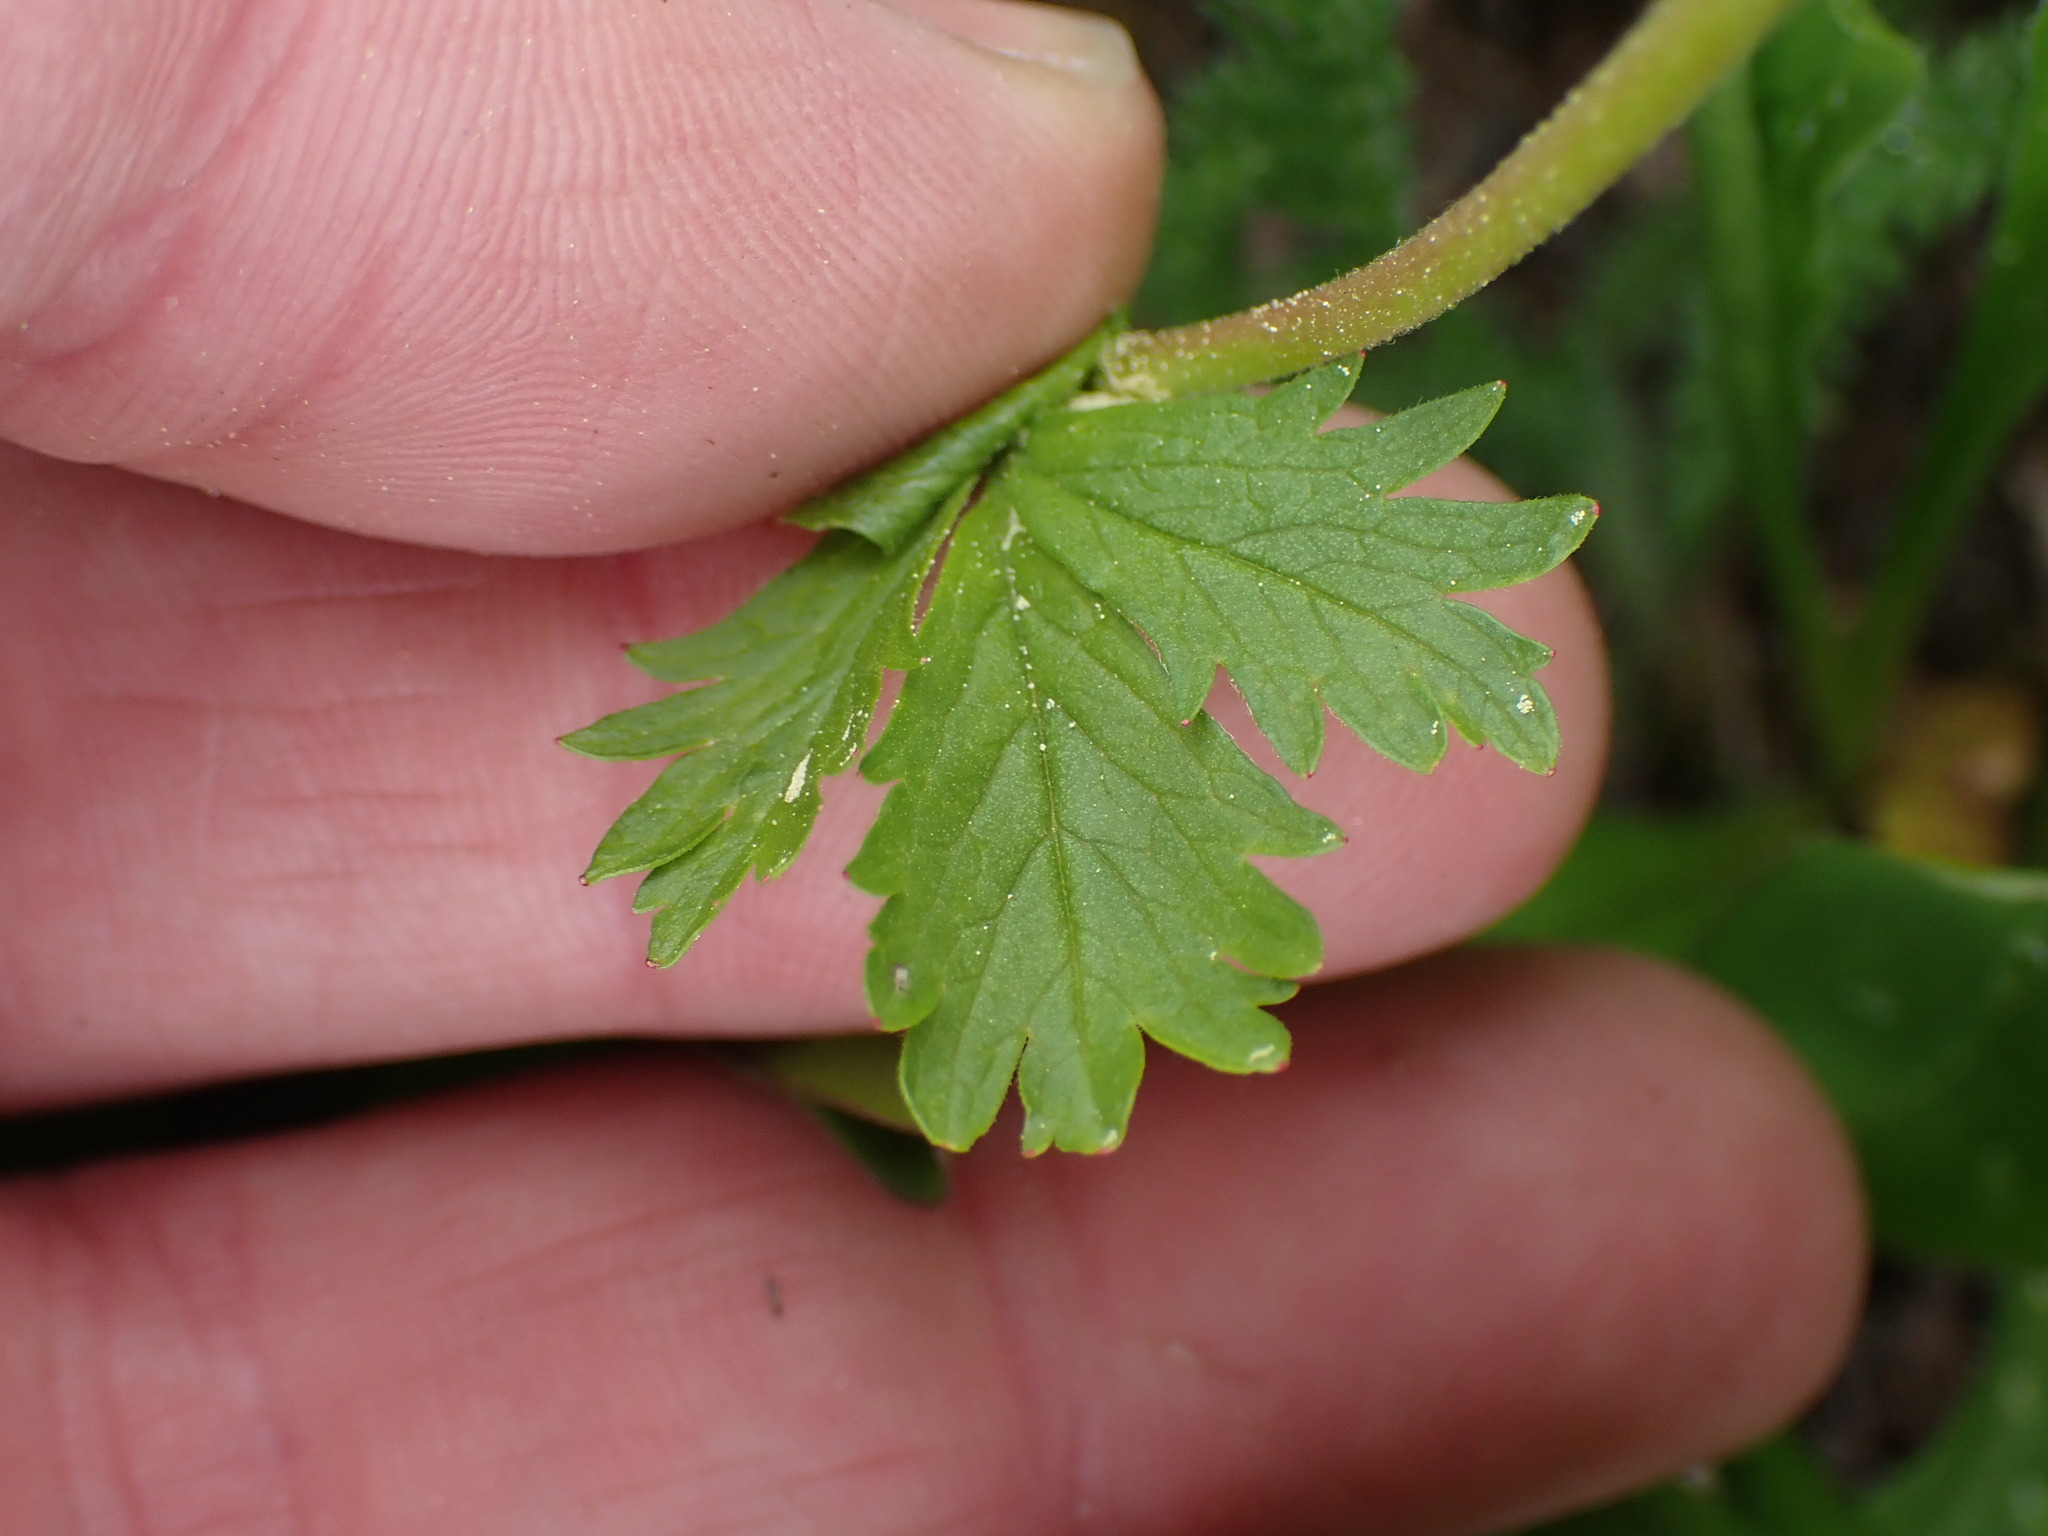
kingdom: Plantae
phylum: Tracheophyta
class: Magnoliopsida
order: Rosales
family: Rosaceae
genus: Potentilla
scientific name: Potentilla flabellifolia
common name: Mount rainier cinquefoil
